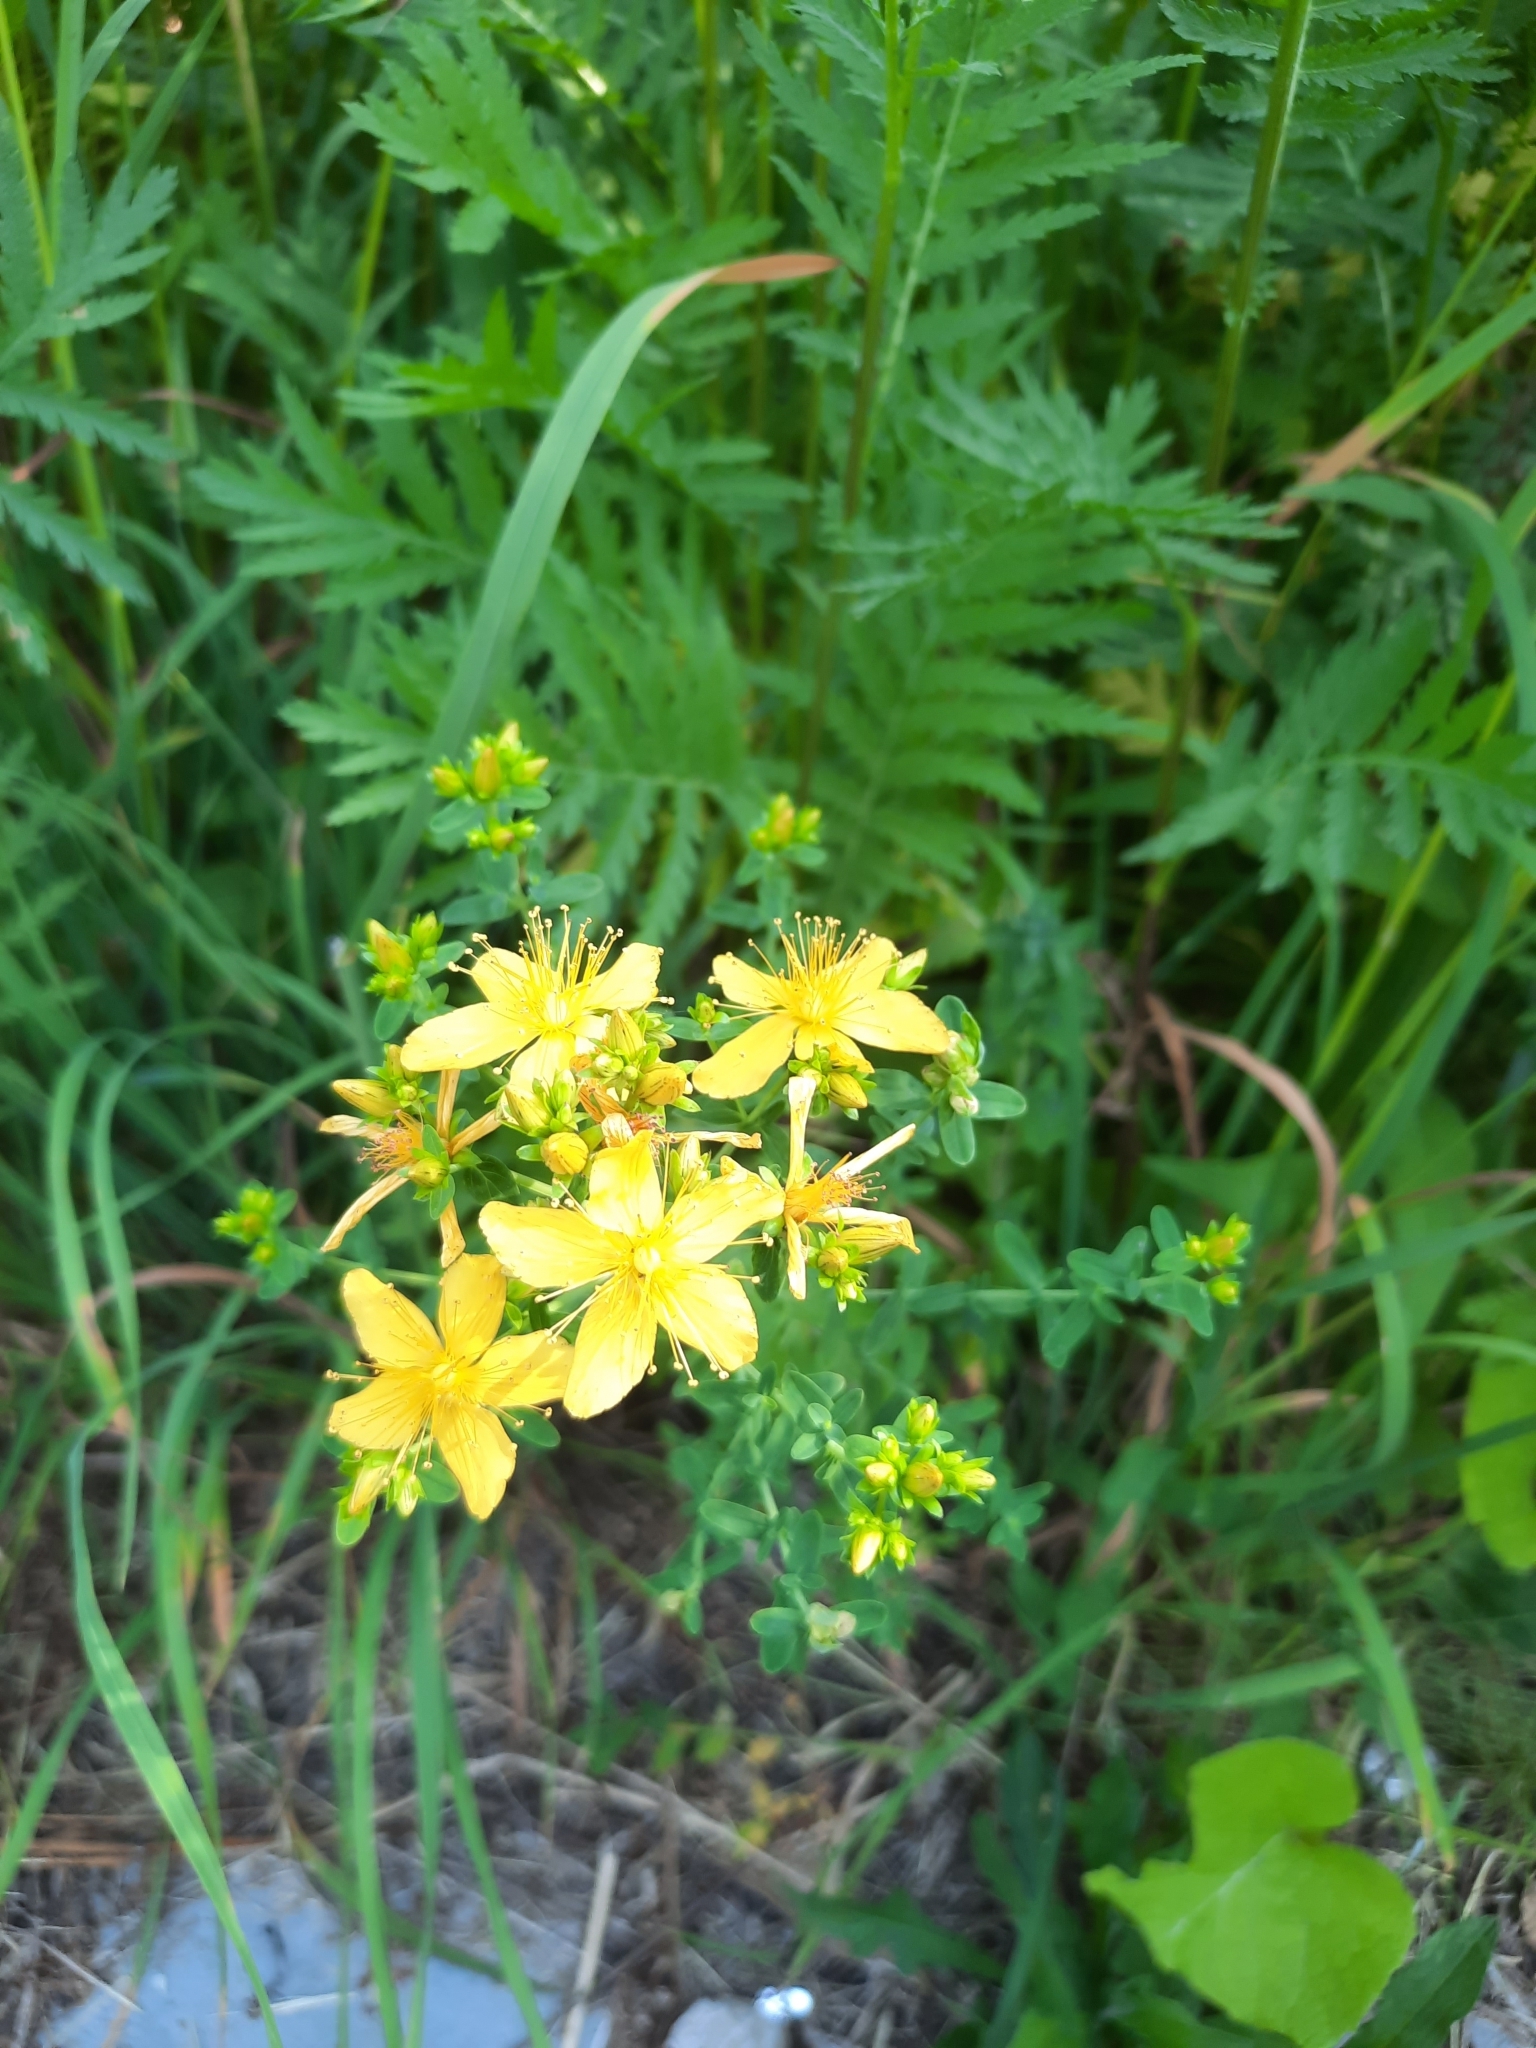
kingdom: Plantae
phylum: Tracheophyta
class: Magnoliopsida
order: Malpighiales
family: Hypericaceae
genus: Hypericum
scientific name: Hypericum perforatum
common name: Common st. johnswort
